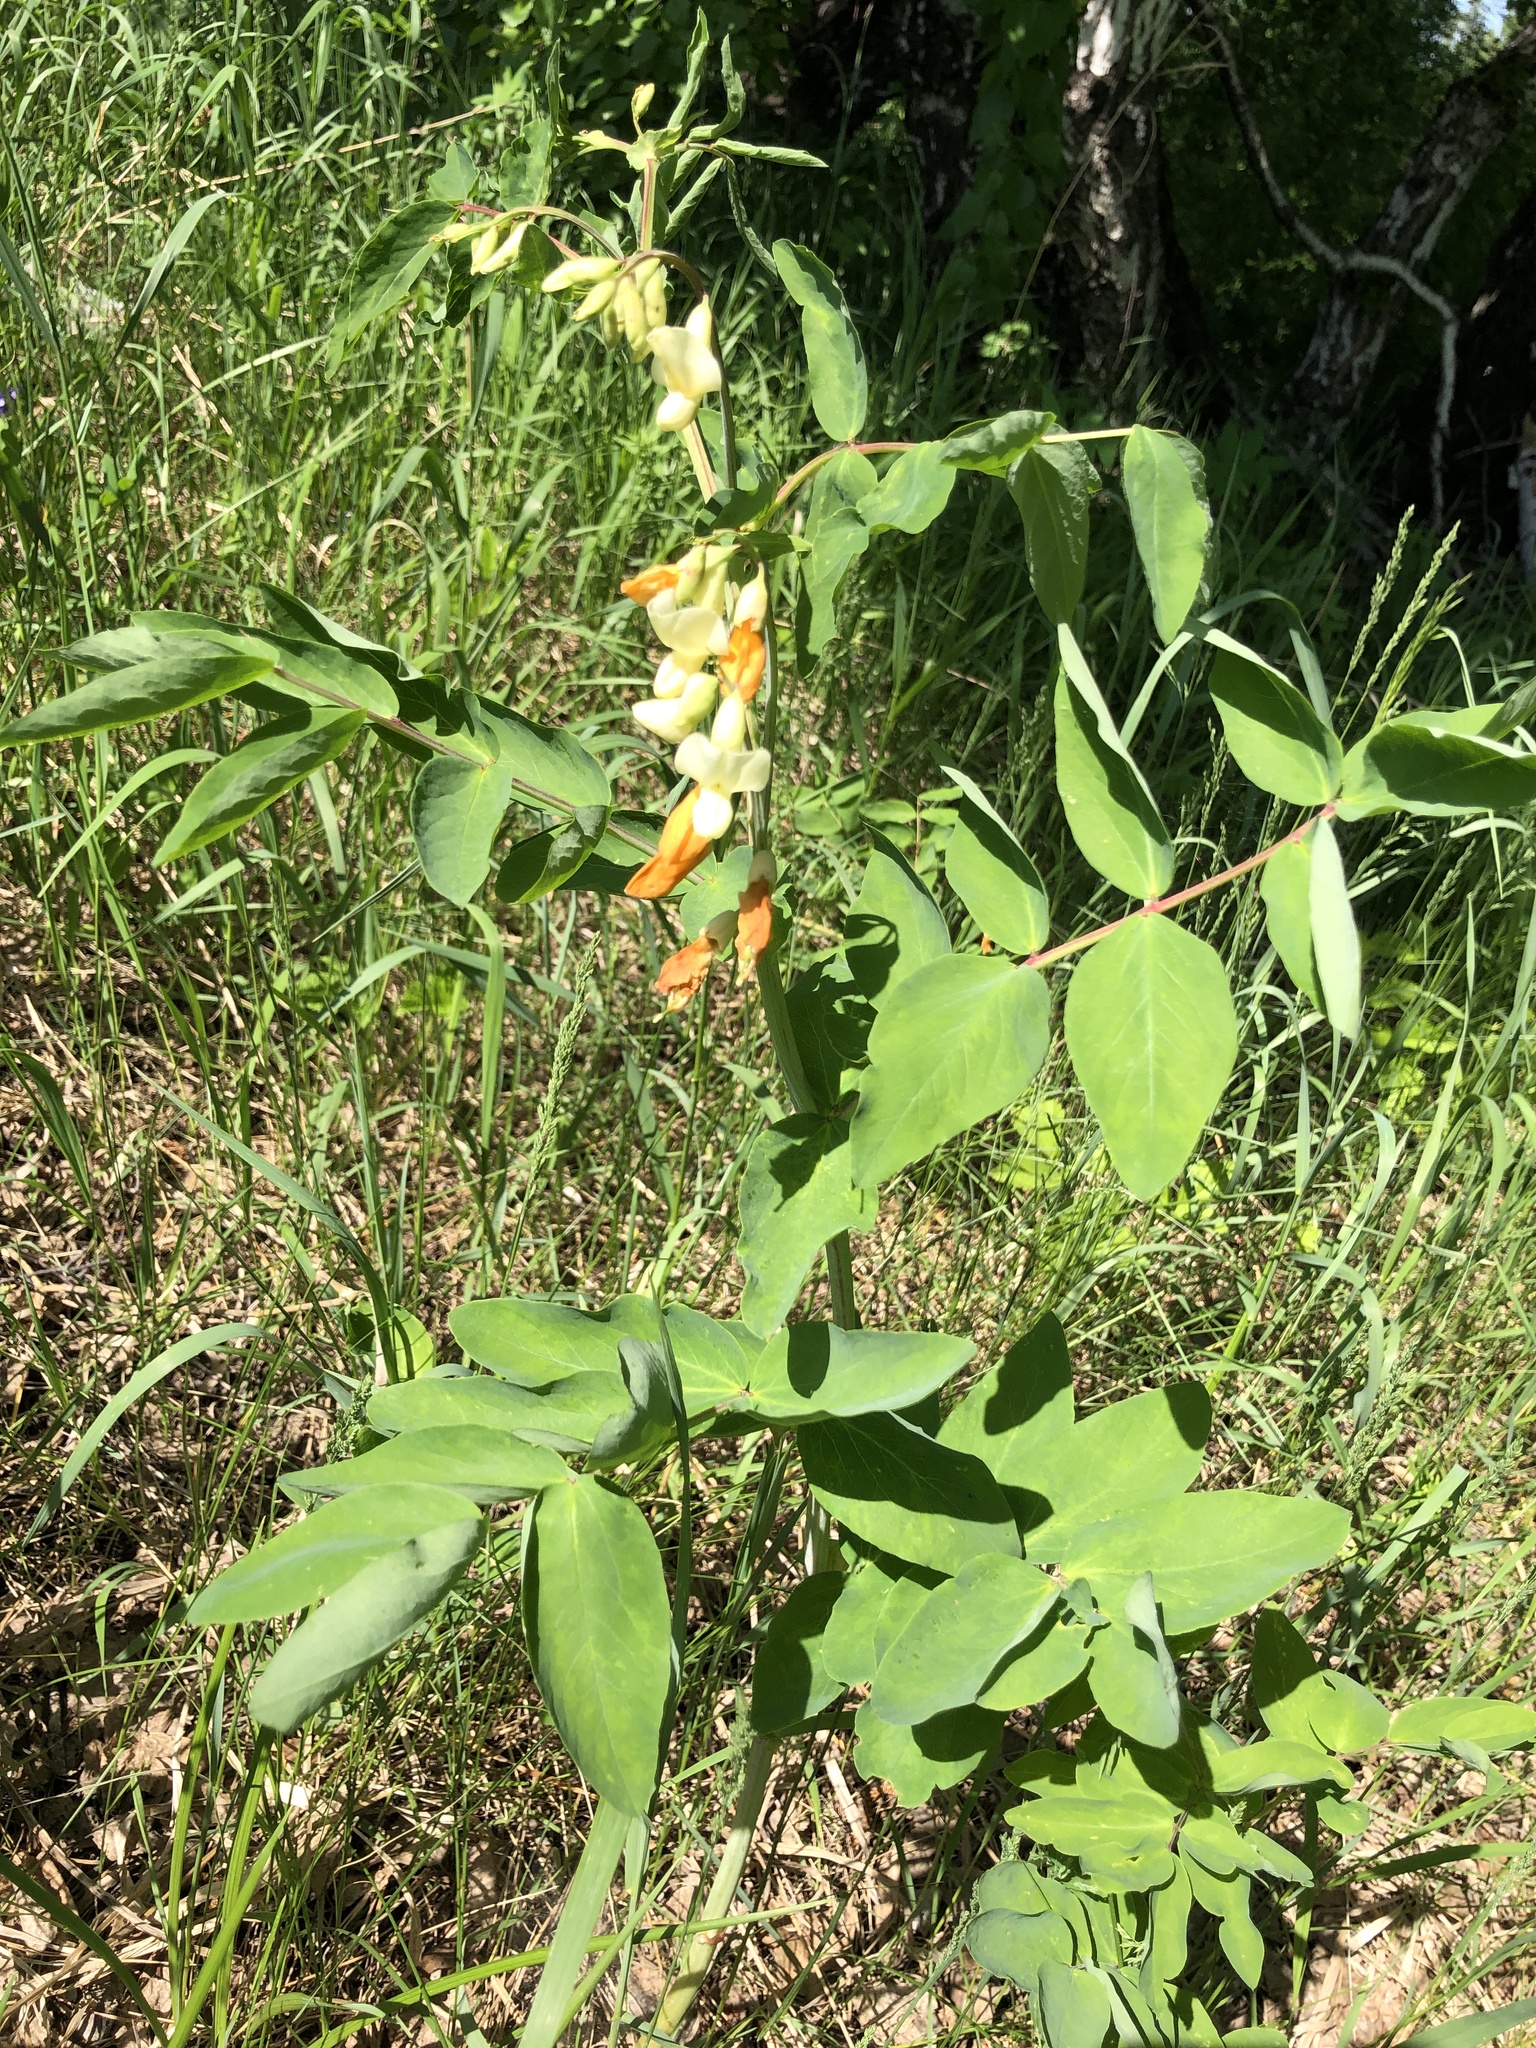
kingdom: Plantae
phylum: Tracheophyta
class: Magnoliopsida
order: Fabales
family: Fabaceae
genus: Lathyrus
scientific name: Lathyrus gmelinii
